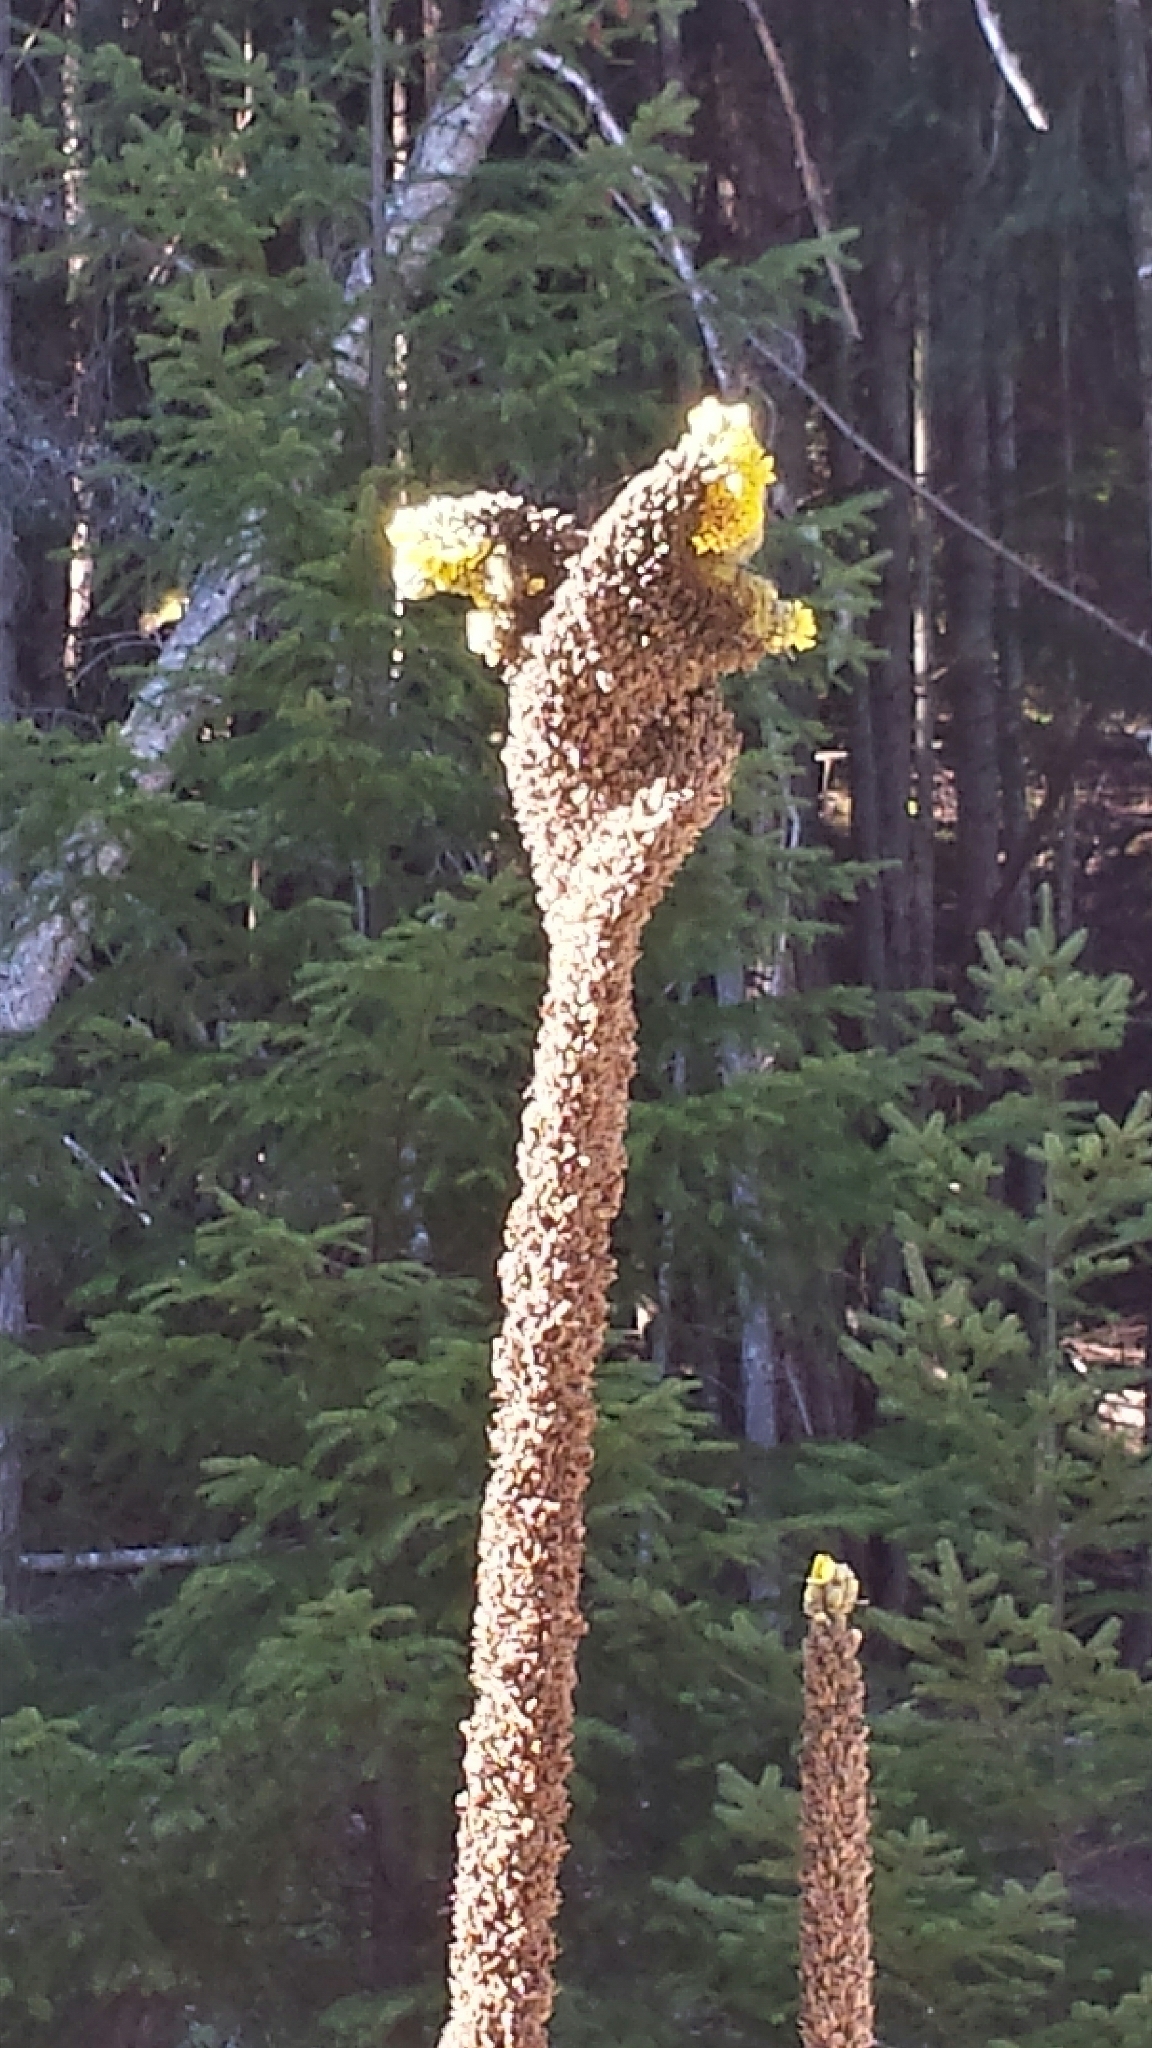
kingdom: Plantae
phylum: Tracheophyta
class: Magnoliopsida
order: Lamiales
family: Scrophulariaceae
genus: Verbascum
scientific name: Verbascum thapsus
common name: Common mullein
